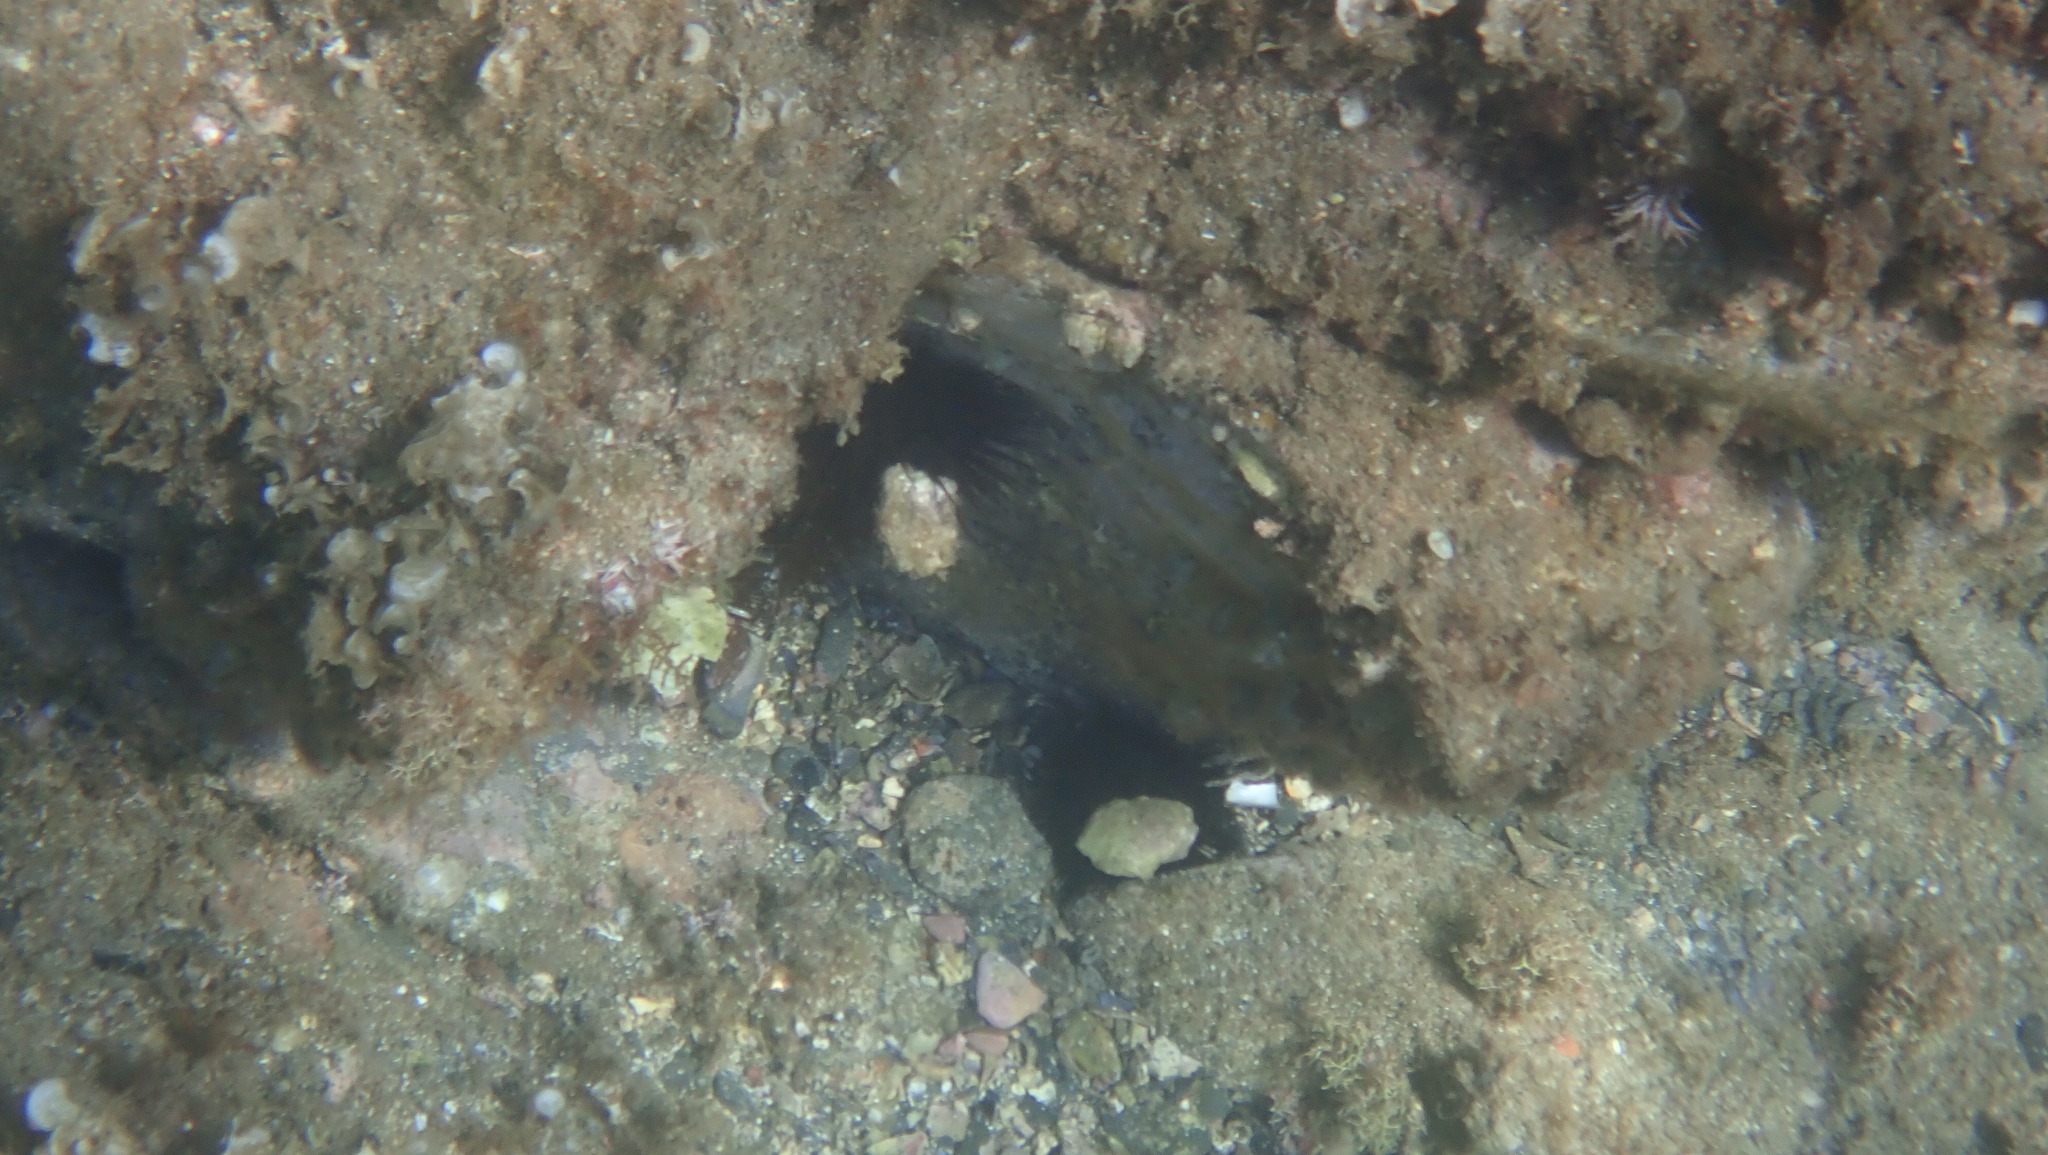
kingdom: Animalia
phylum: Echinodermata
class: Echinoidea
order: Camarodonta
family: Parechinidae
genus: Paracentrotus
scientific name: Paracentrotus lividus
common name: Purple sea urchin
